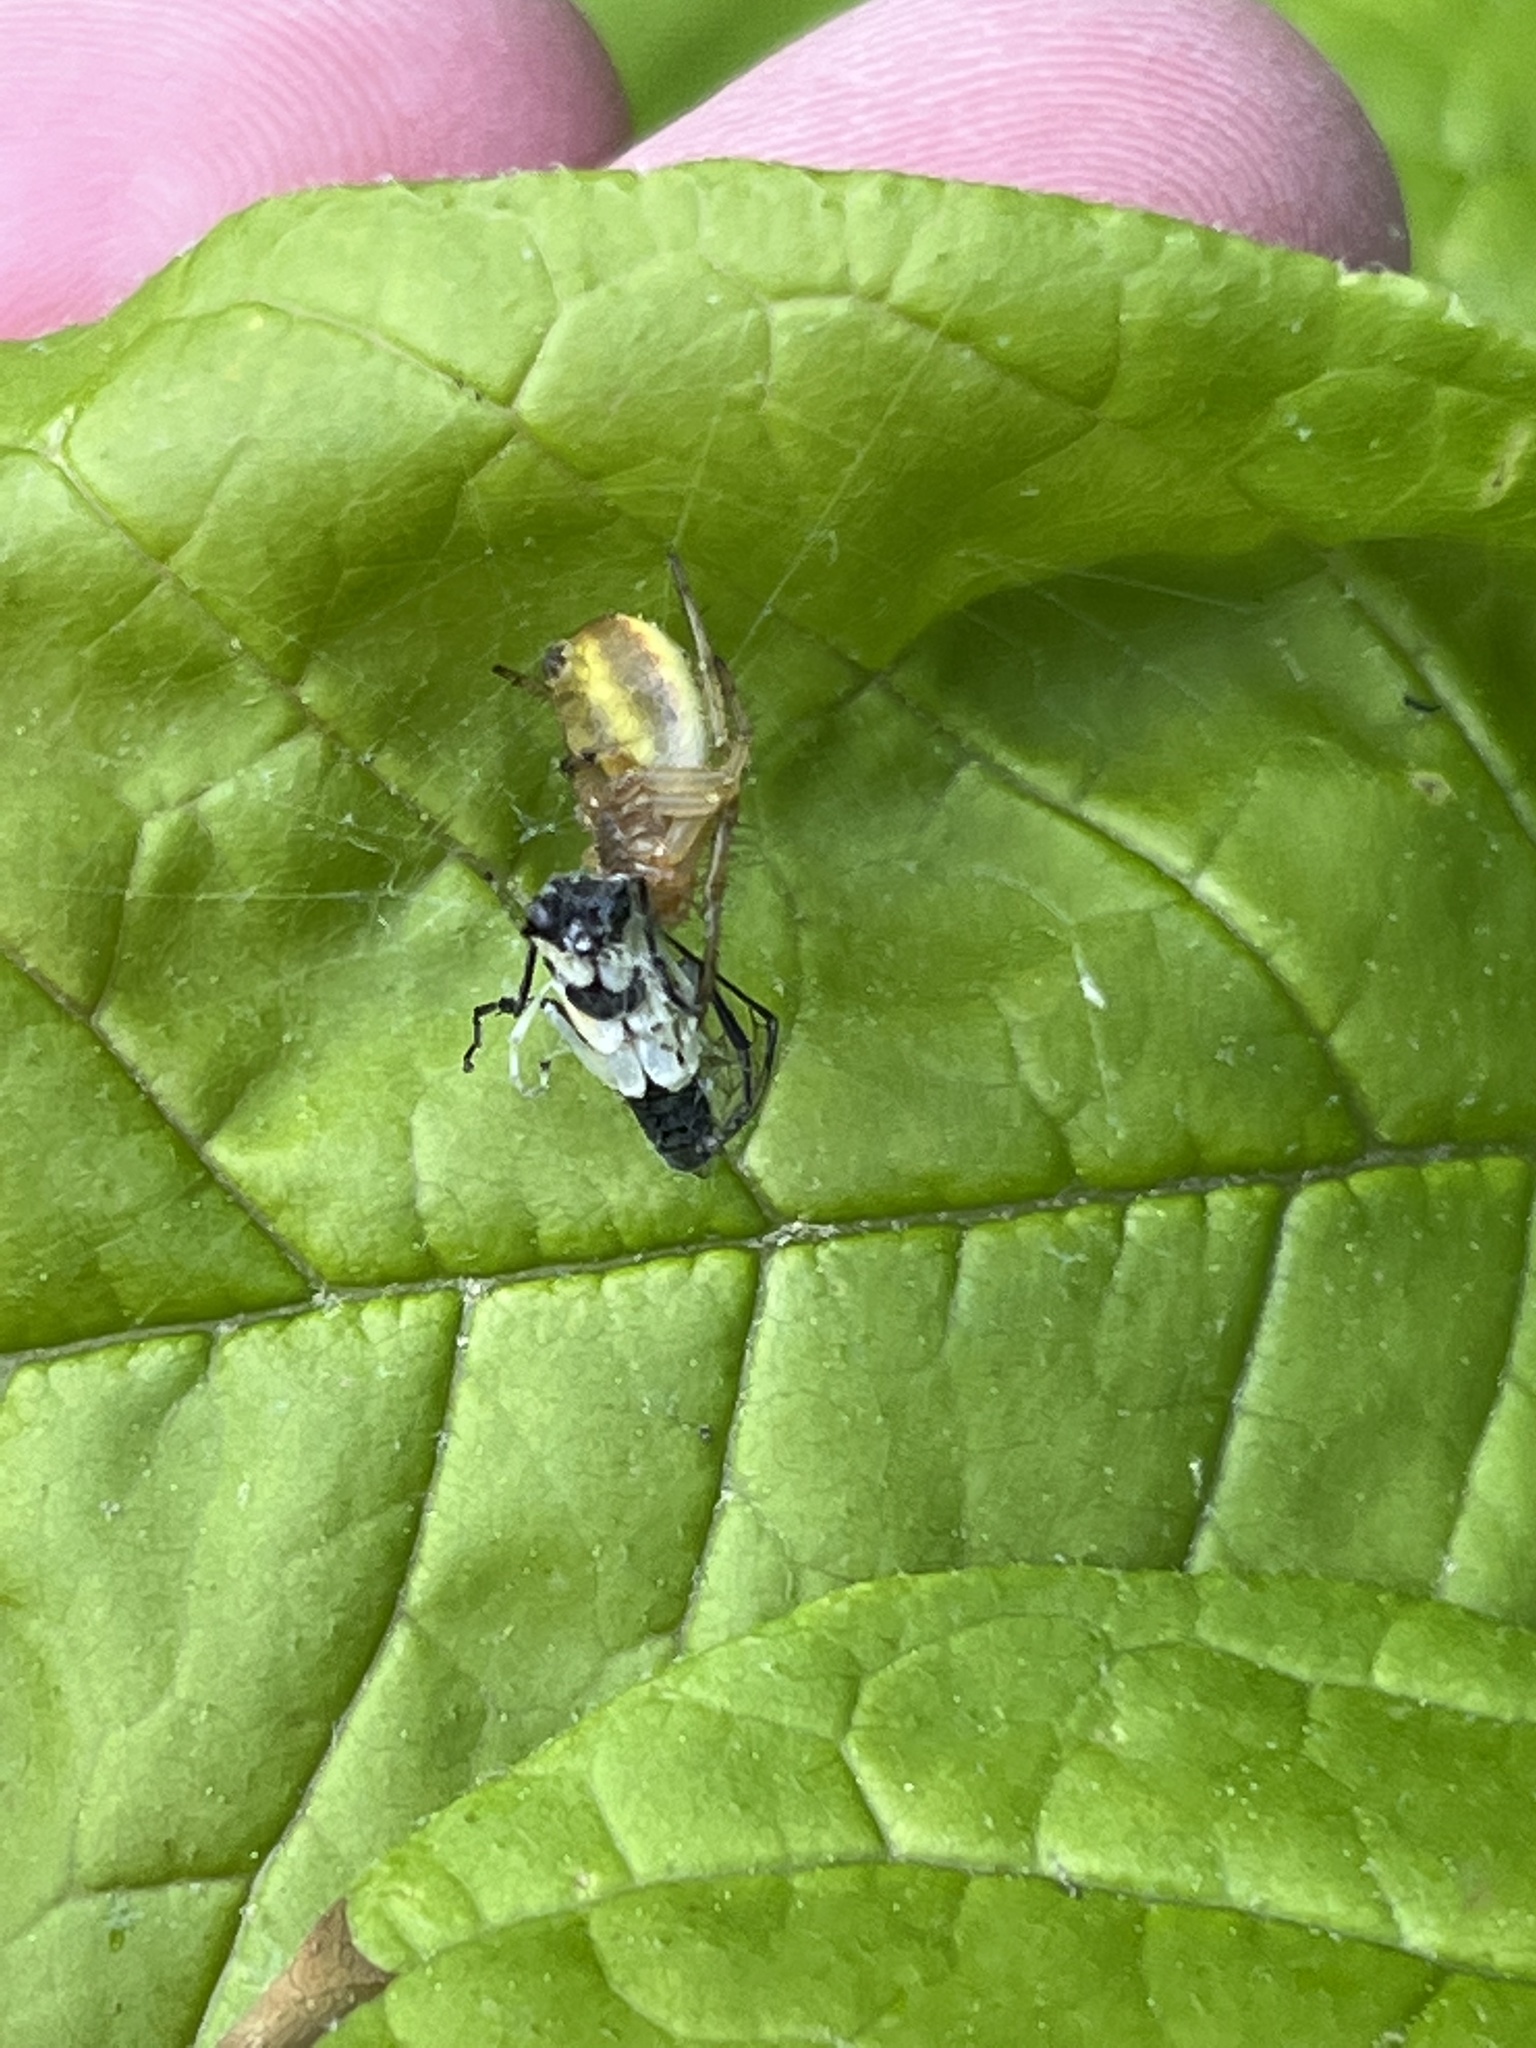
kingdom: Animalia
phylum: Arthropoda
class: Arachnida
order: Araneae
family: Araneidae
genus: Araniella
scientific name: Araniella displicata
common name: Sixspotted orb weaver
